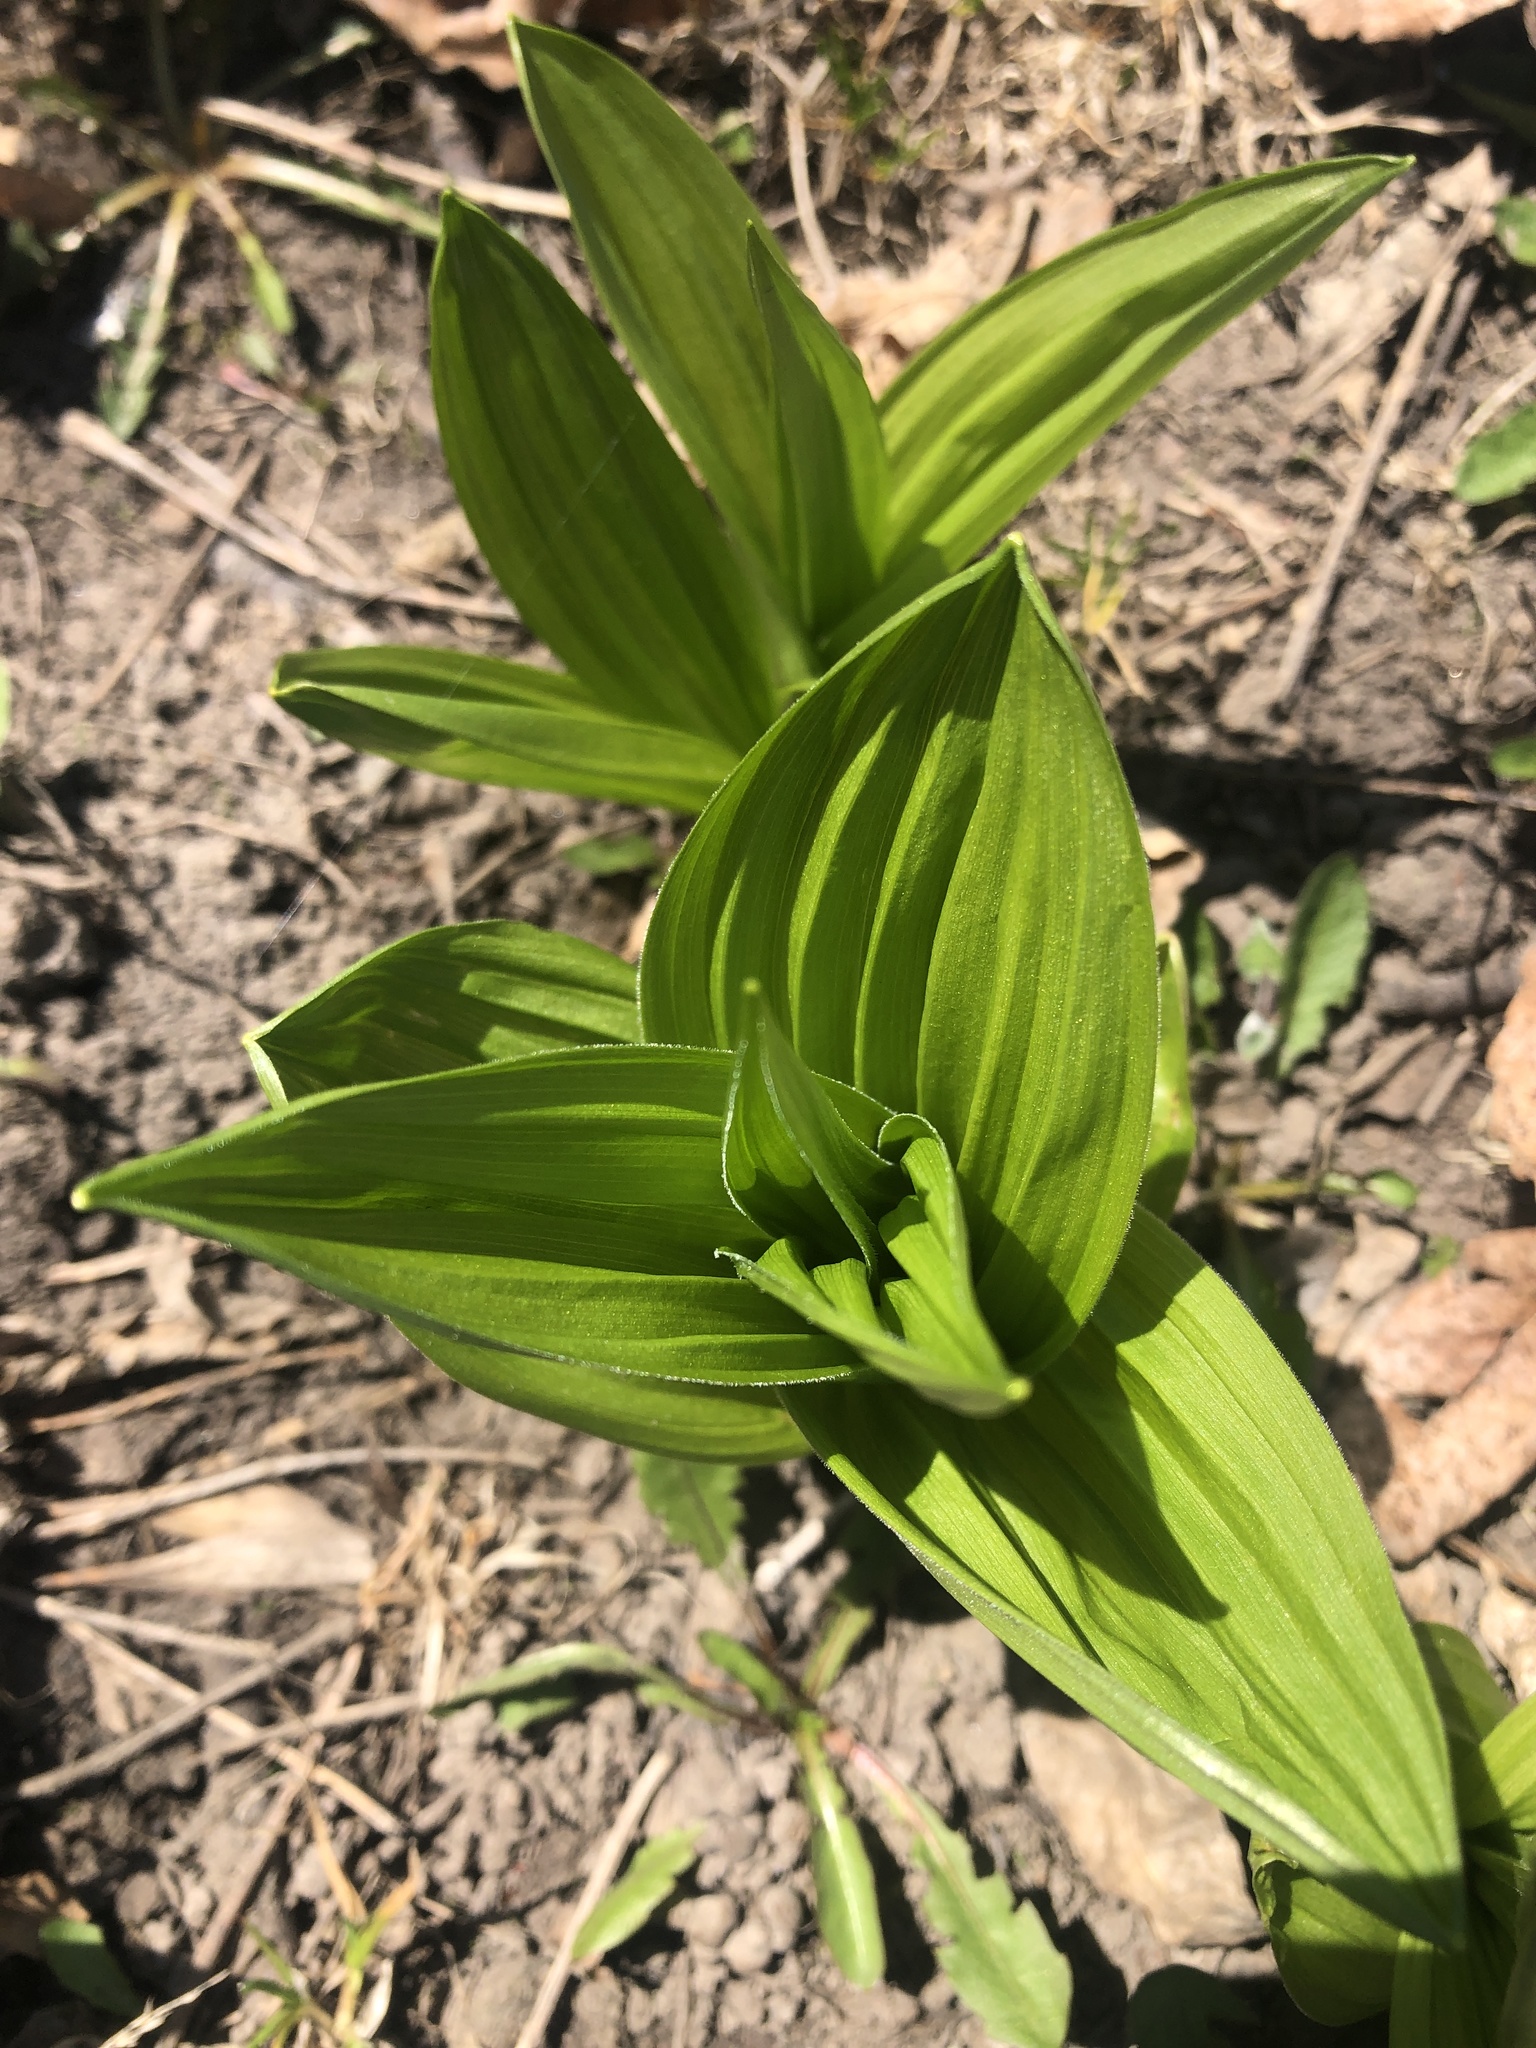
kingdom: Plantae
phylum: Tracheophyta
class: Liliopsida
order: Liliales
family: Melanthiaceae
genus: Veratrum
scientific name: Veratrum viride
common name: American false hellebore
